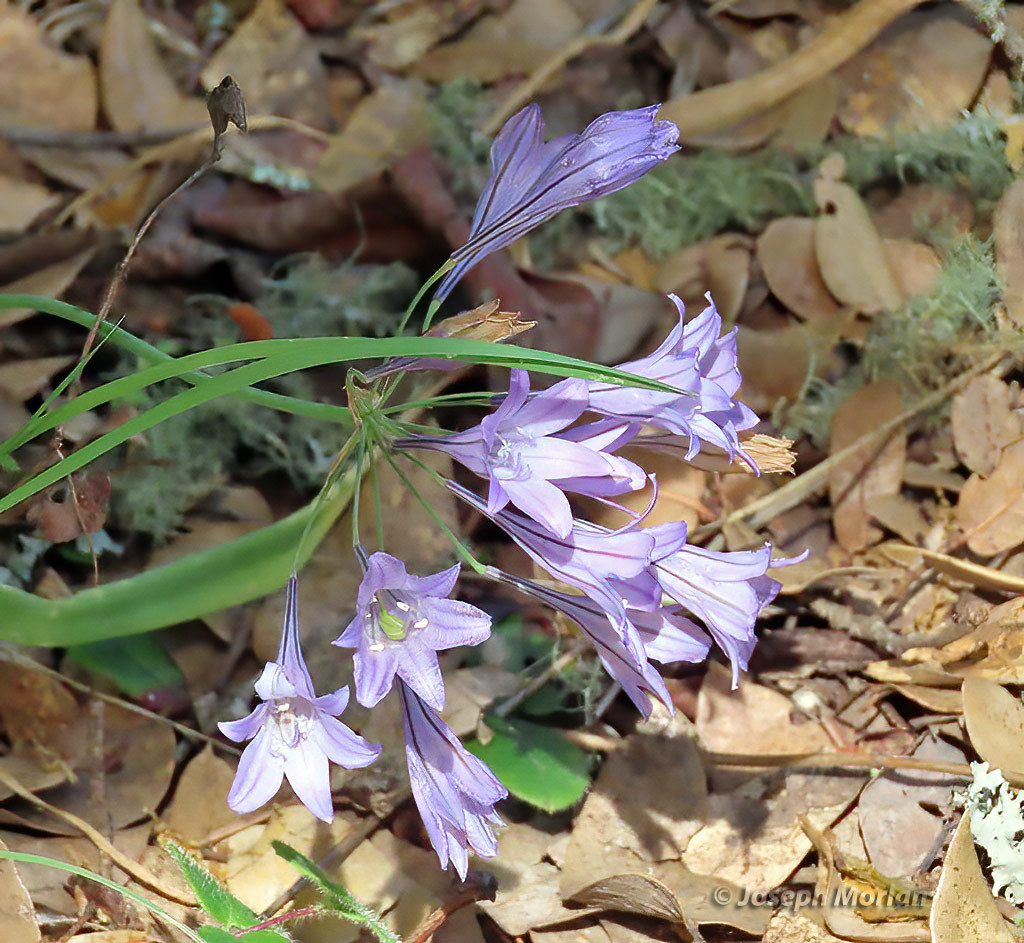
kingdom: Plantae
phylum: Tracheophyta
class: Liliopsida
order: Asparagales
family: Asparagaceae
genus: Triteleia
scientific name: Triteleia laxa
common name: Triplet-lily
